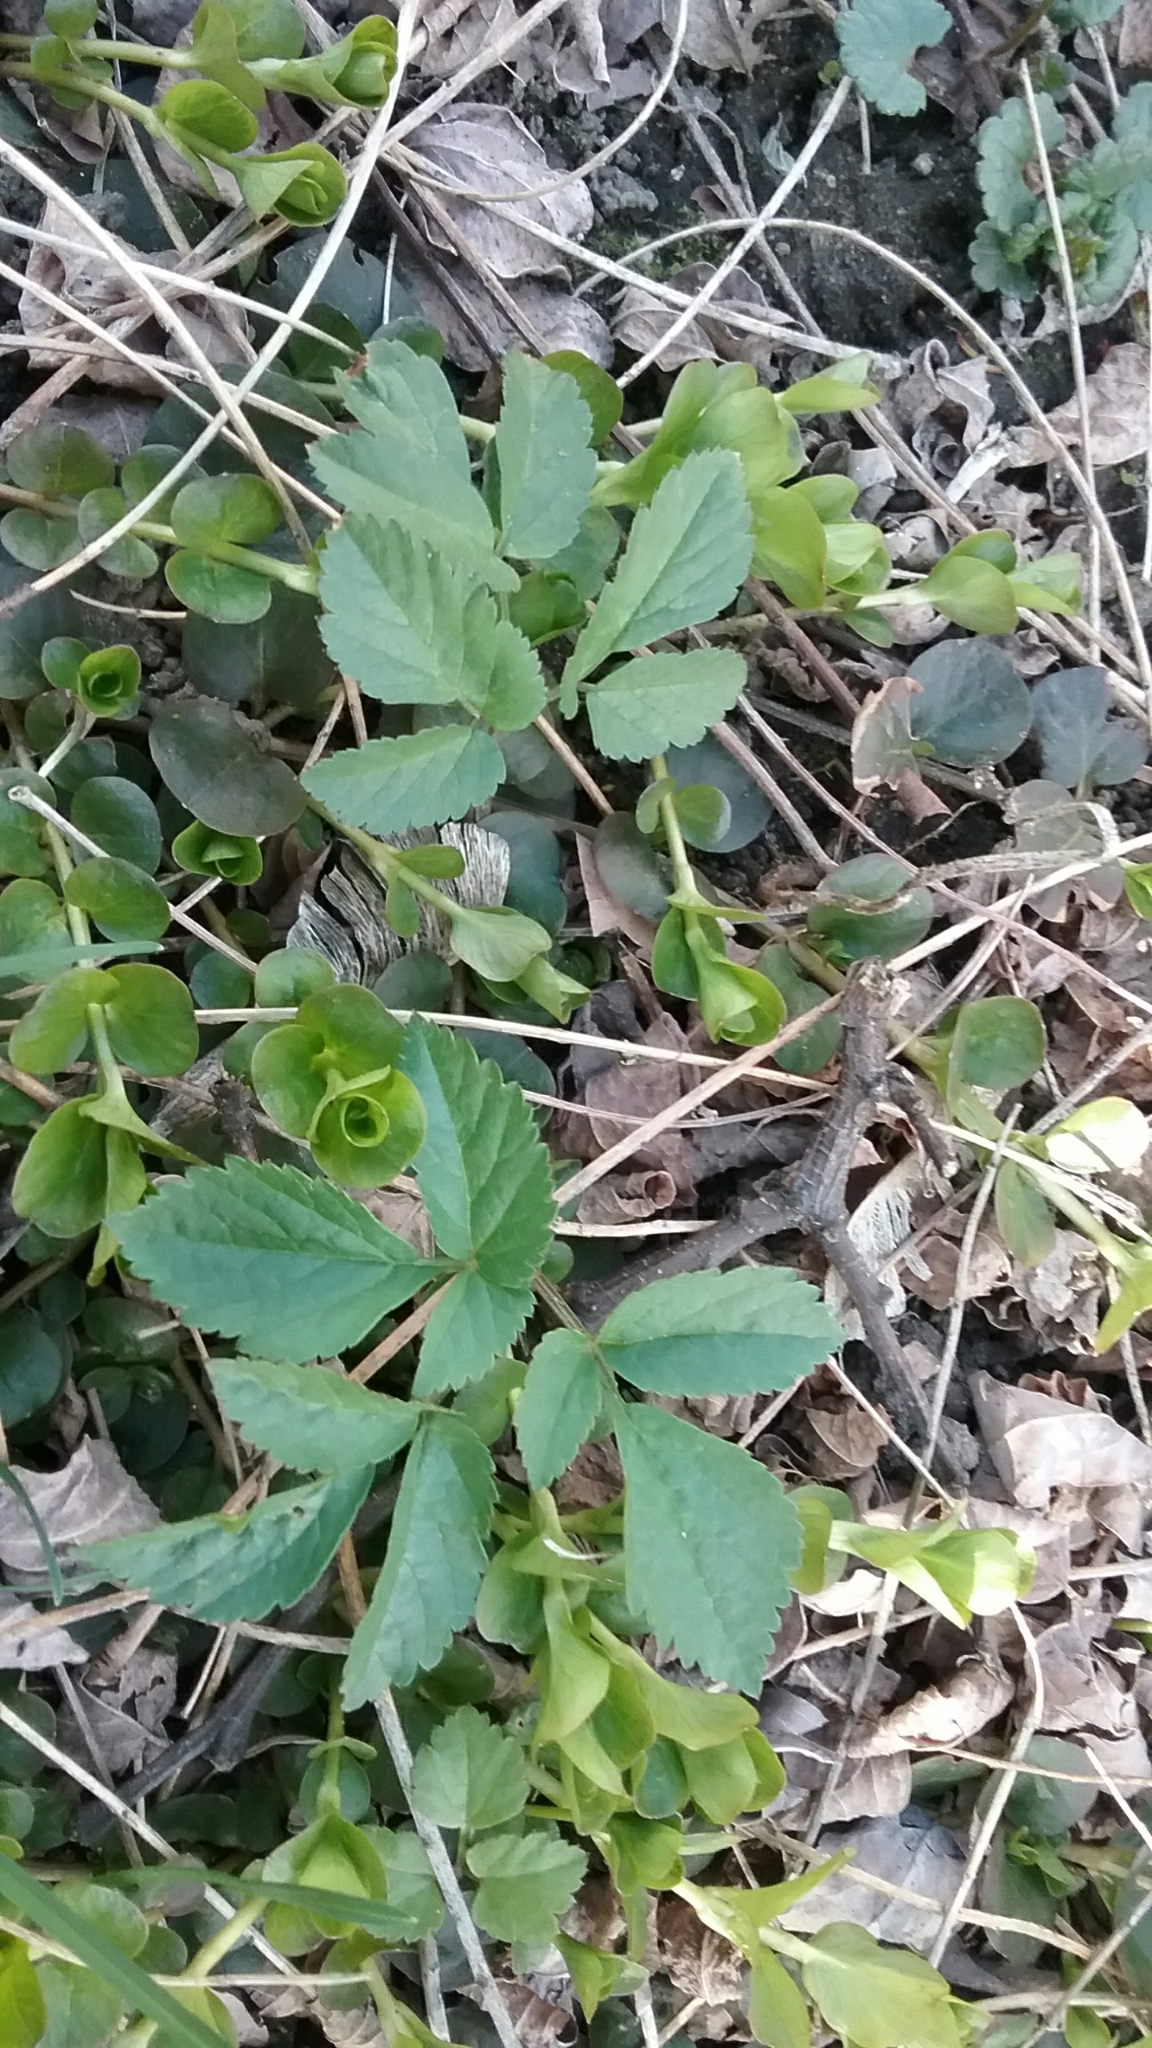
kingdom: Plantae
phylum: Tracheophyta
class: Magnoliopsida
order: Apiales
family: Apiaceae
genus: Aegopodium
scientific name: Aegopodium podagraria
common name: Ground-elder
